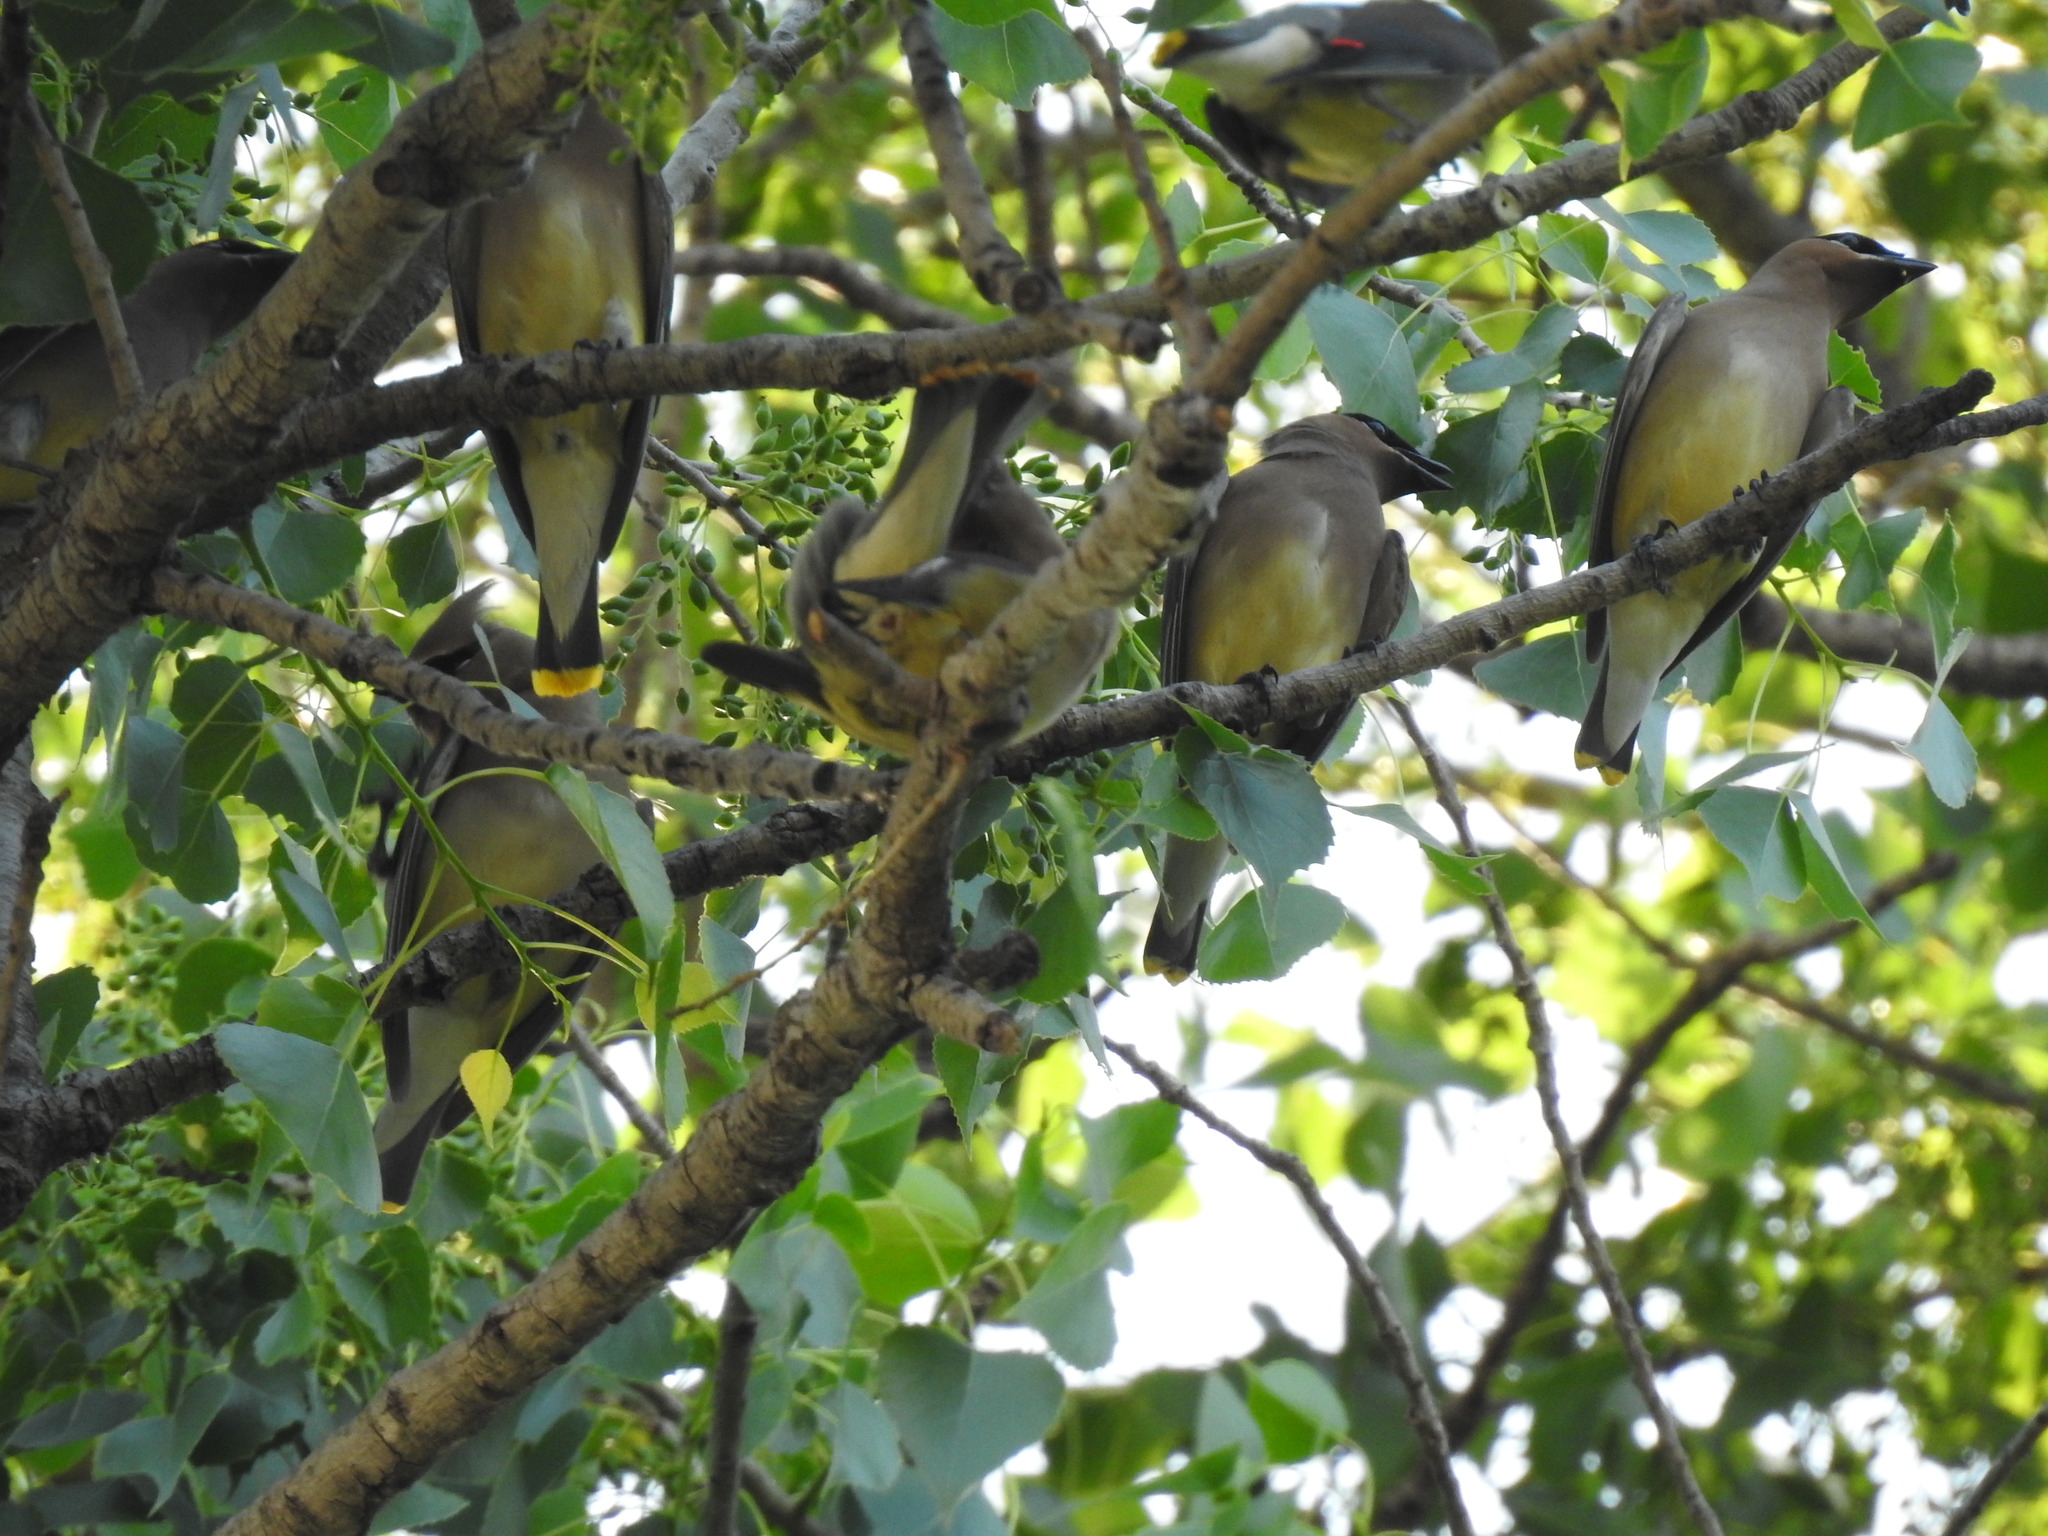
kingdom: Animalia
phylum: Chordata
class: Aves
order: Passeriformes
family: Bombycillidae
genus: Bombycilla
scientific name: Bombycilla cedrorum
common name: Cedar waxwing
